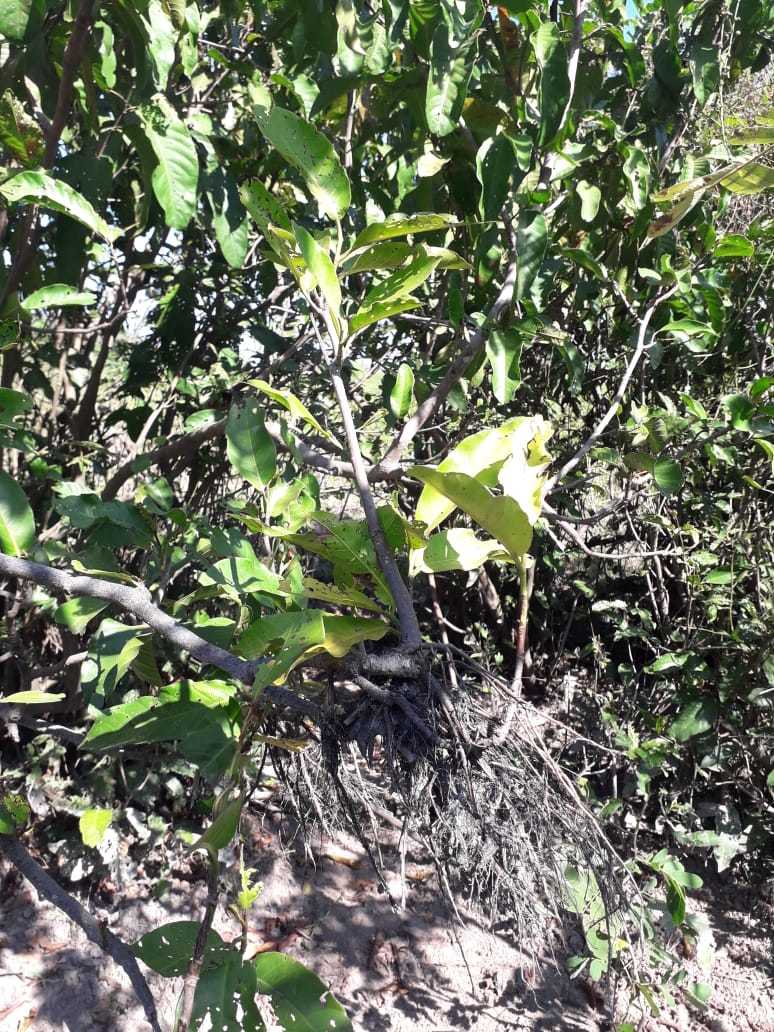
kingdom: Plantae
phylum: Tracheophyta
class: Magnoliopsida
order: Caryophyllales
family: Polygonaceae
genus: Symmeria
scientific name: Symmeria paniculata
